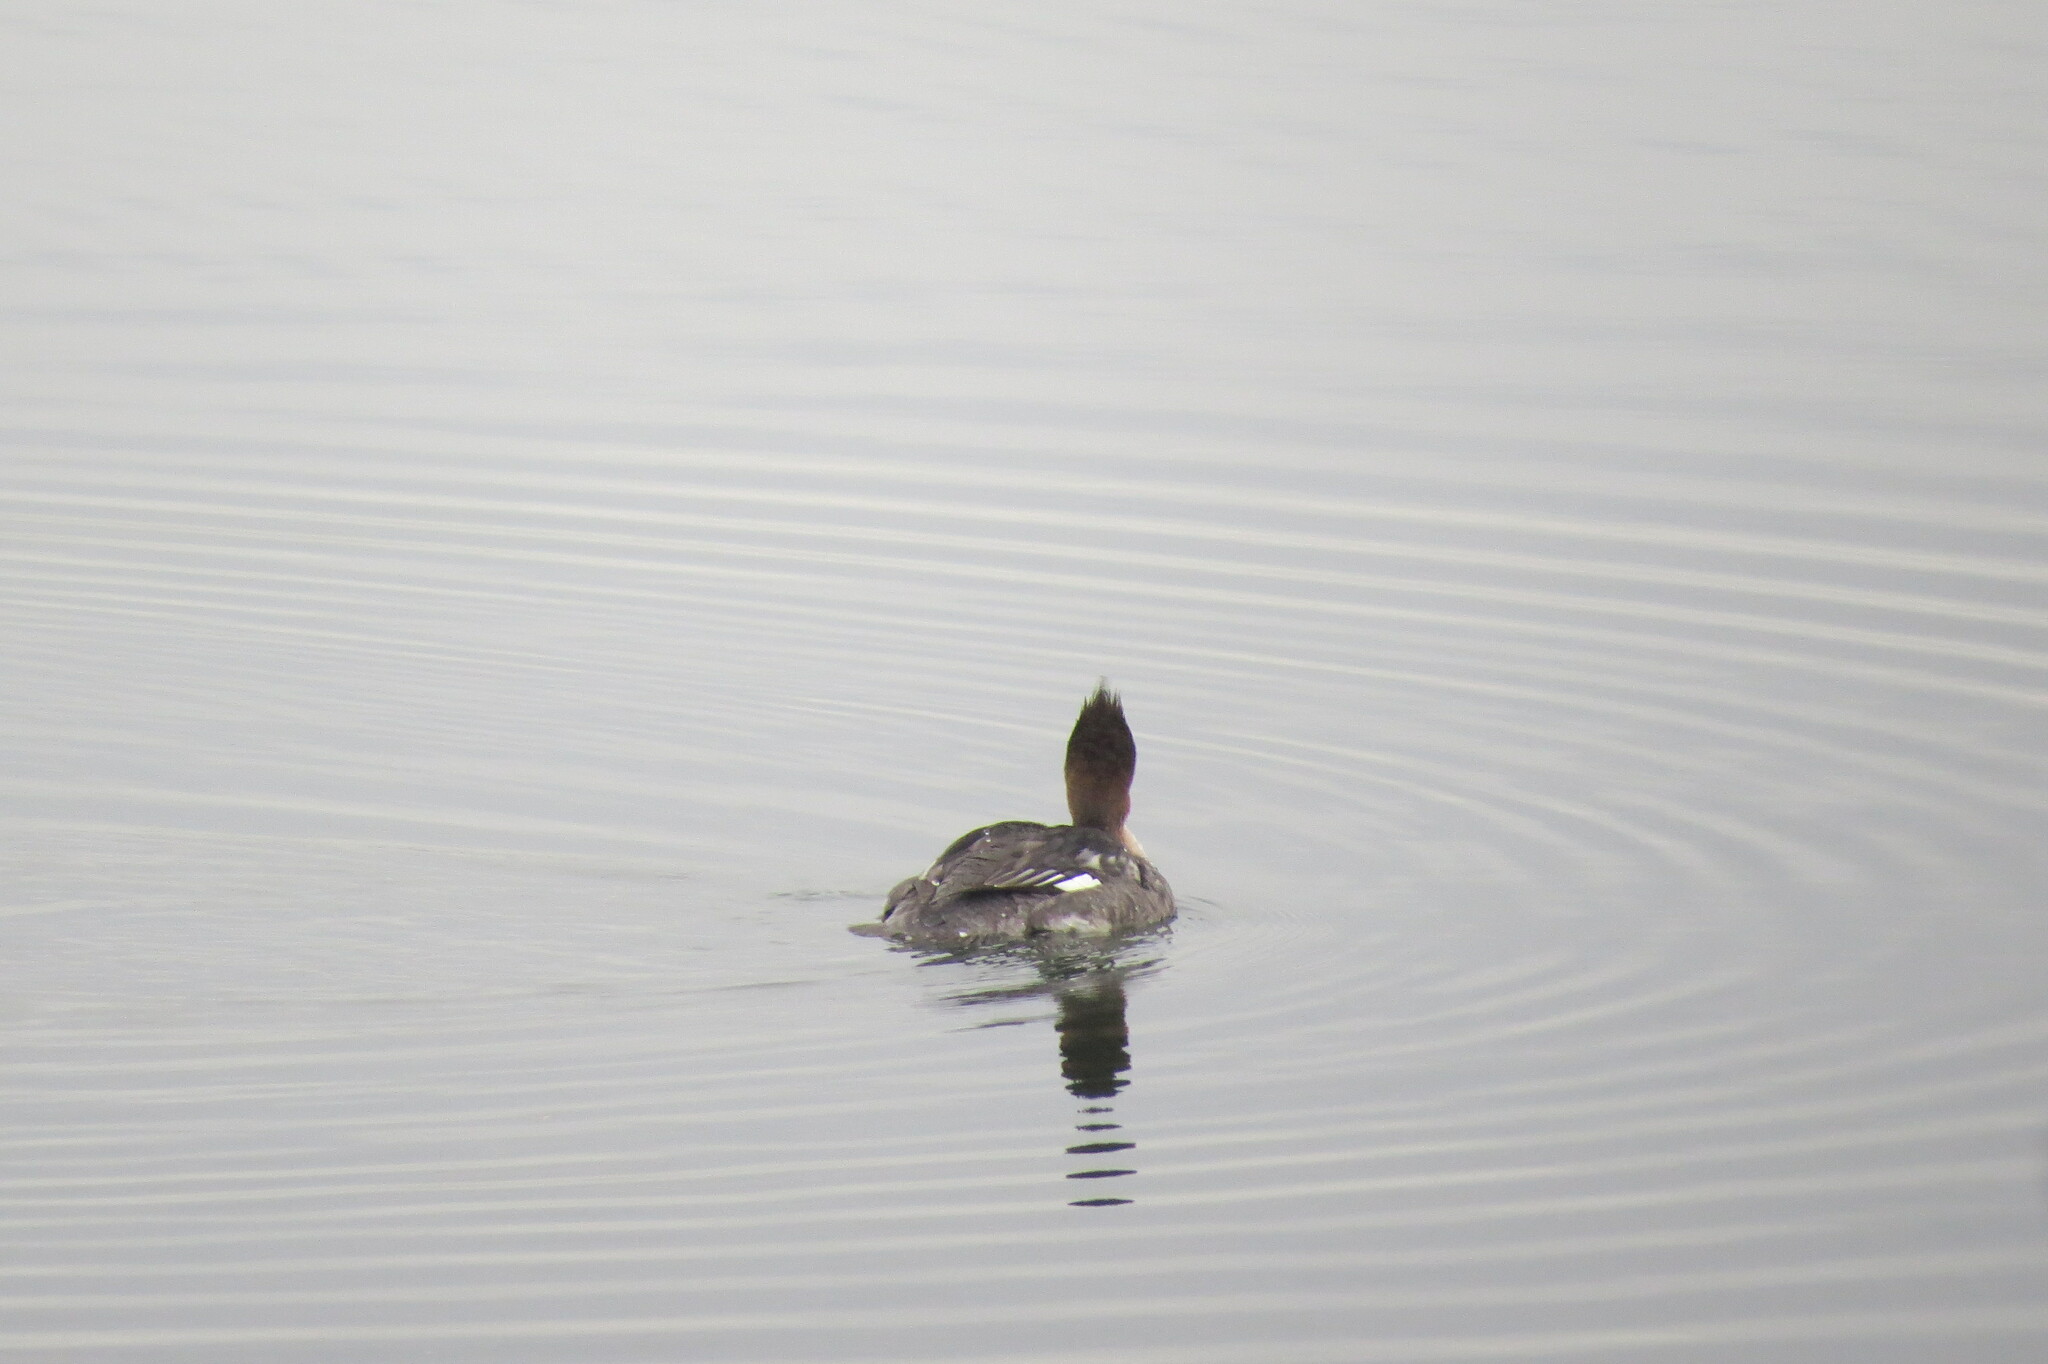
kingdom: Animalia
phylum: Chordata
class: Aves
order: Anseriformes
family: Anatidae
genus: Mergus
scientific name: Mergus serrator
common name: Red-breasted merganser
